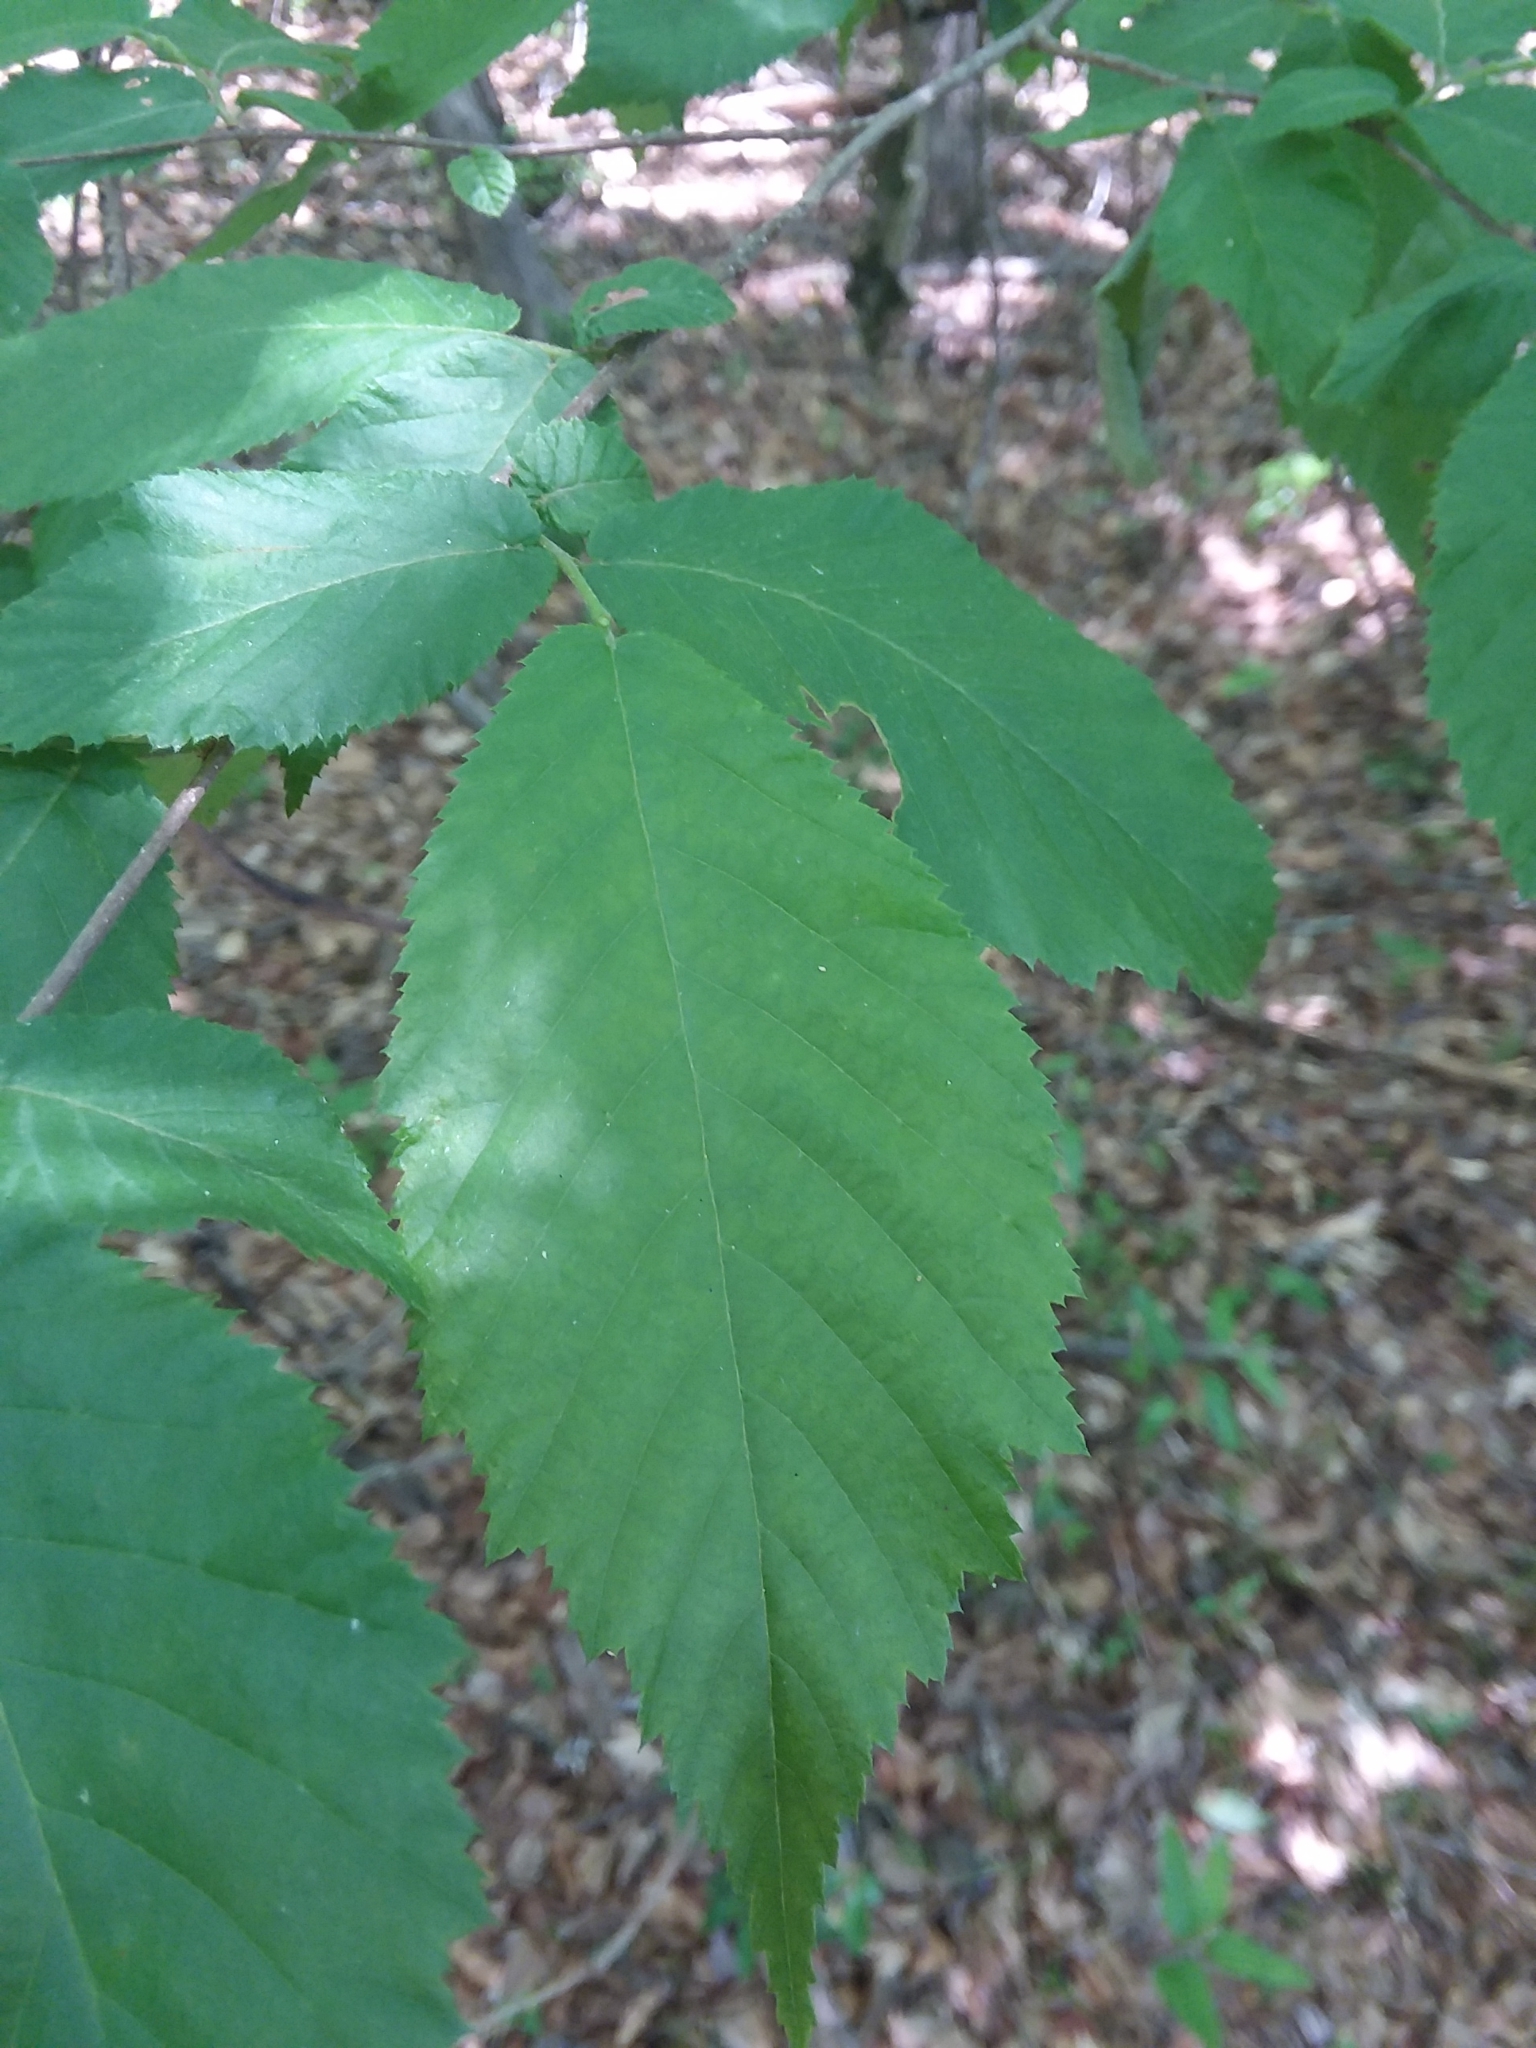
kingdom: Plantae
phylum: Tracheophyta
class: Magnoliopsida
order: Fagales
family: Betulaceae
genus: Ostrya
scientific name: Ostrya virginiana
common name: Ironwood
